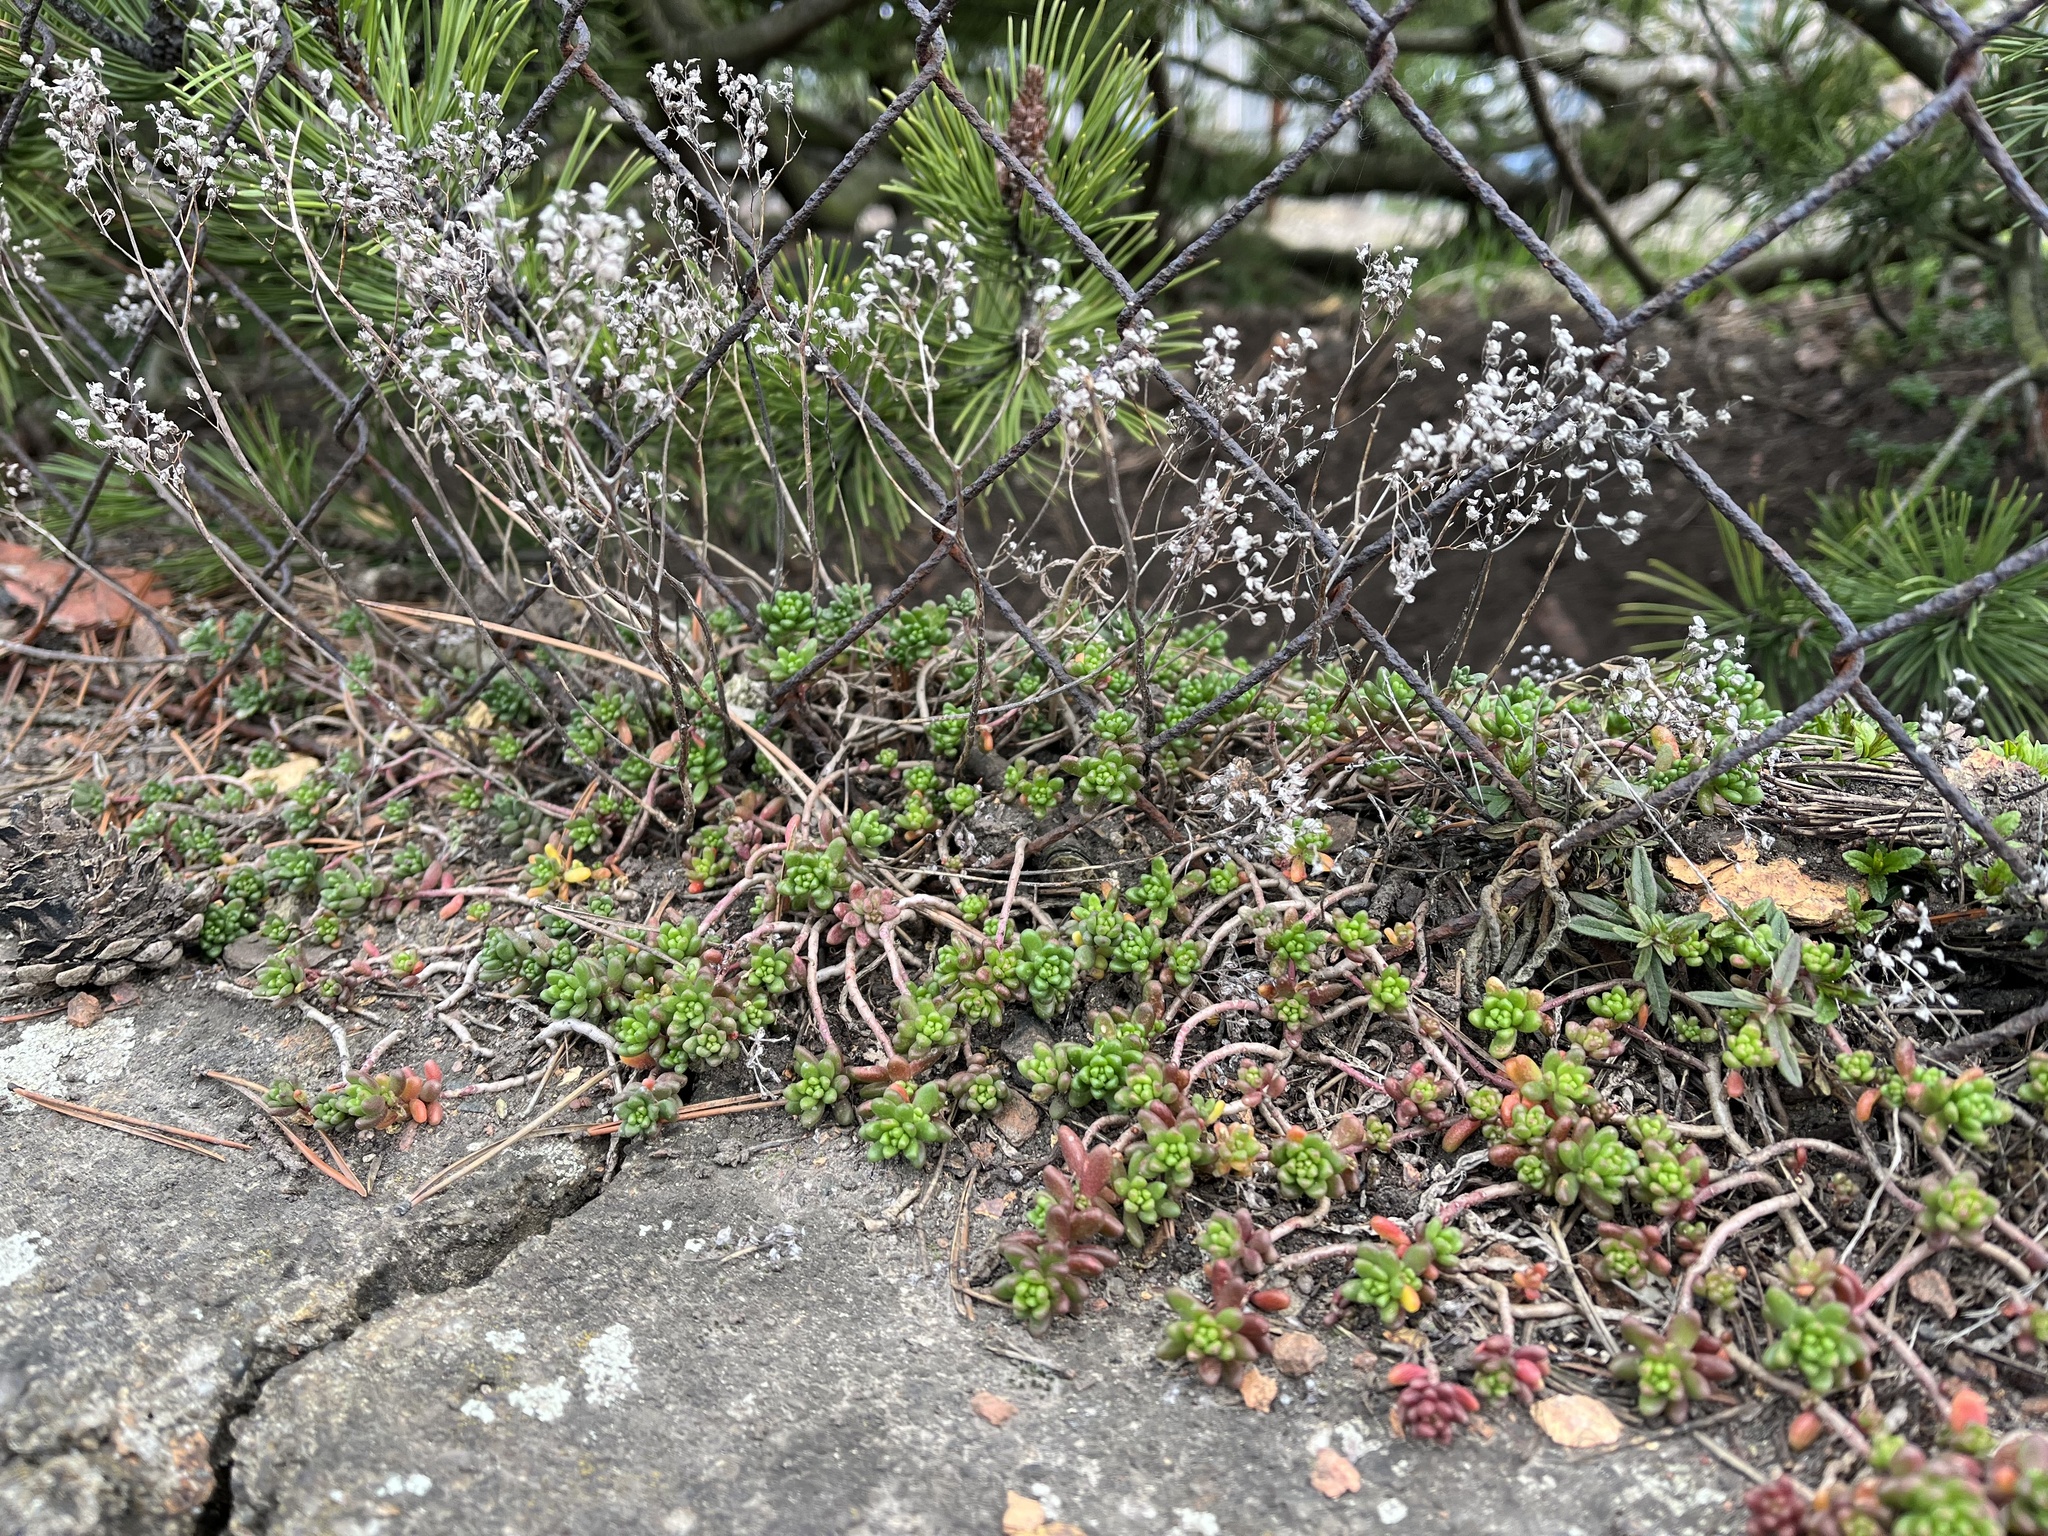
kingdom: Plantae
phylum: Tracheophyta
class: Magnoliopsida
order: Saxifragales
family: Crassulaceae
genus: Sedum
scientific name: Sedum album
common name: White stonecrop
